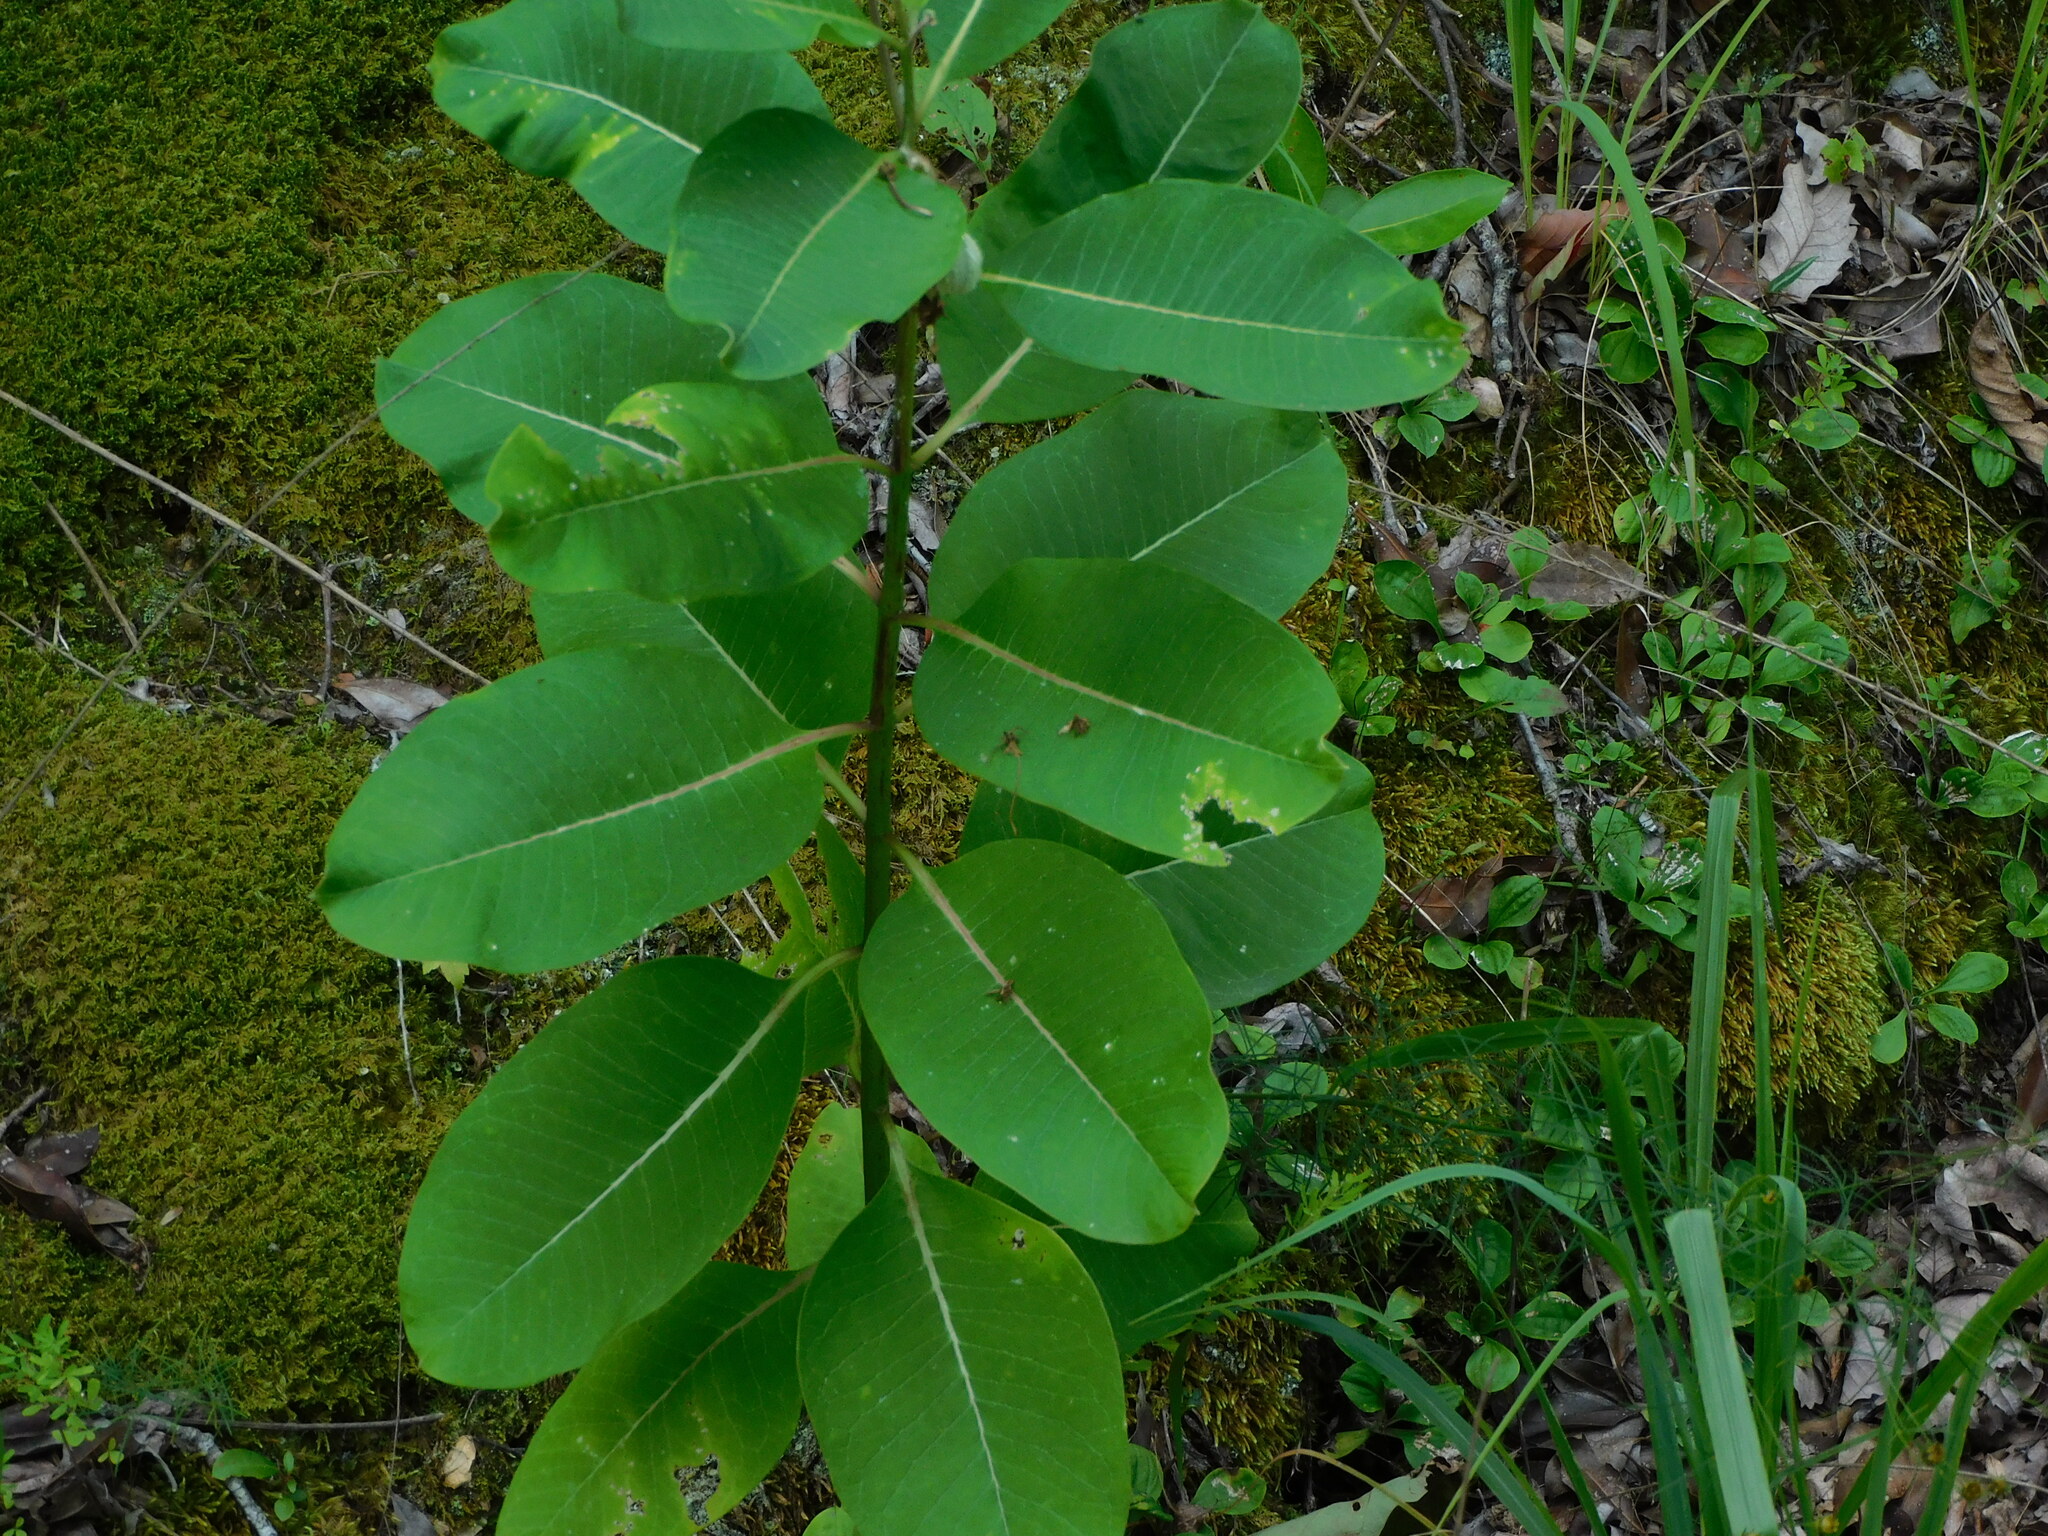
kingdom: Plantae
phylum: Tracheophyta
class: Magnoliopsida
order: Gentianales
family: Apocynaceae
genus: Asclepias
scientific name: Asclepias syriaca
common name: Common milkweed
